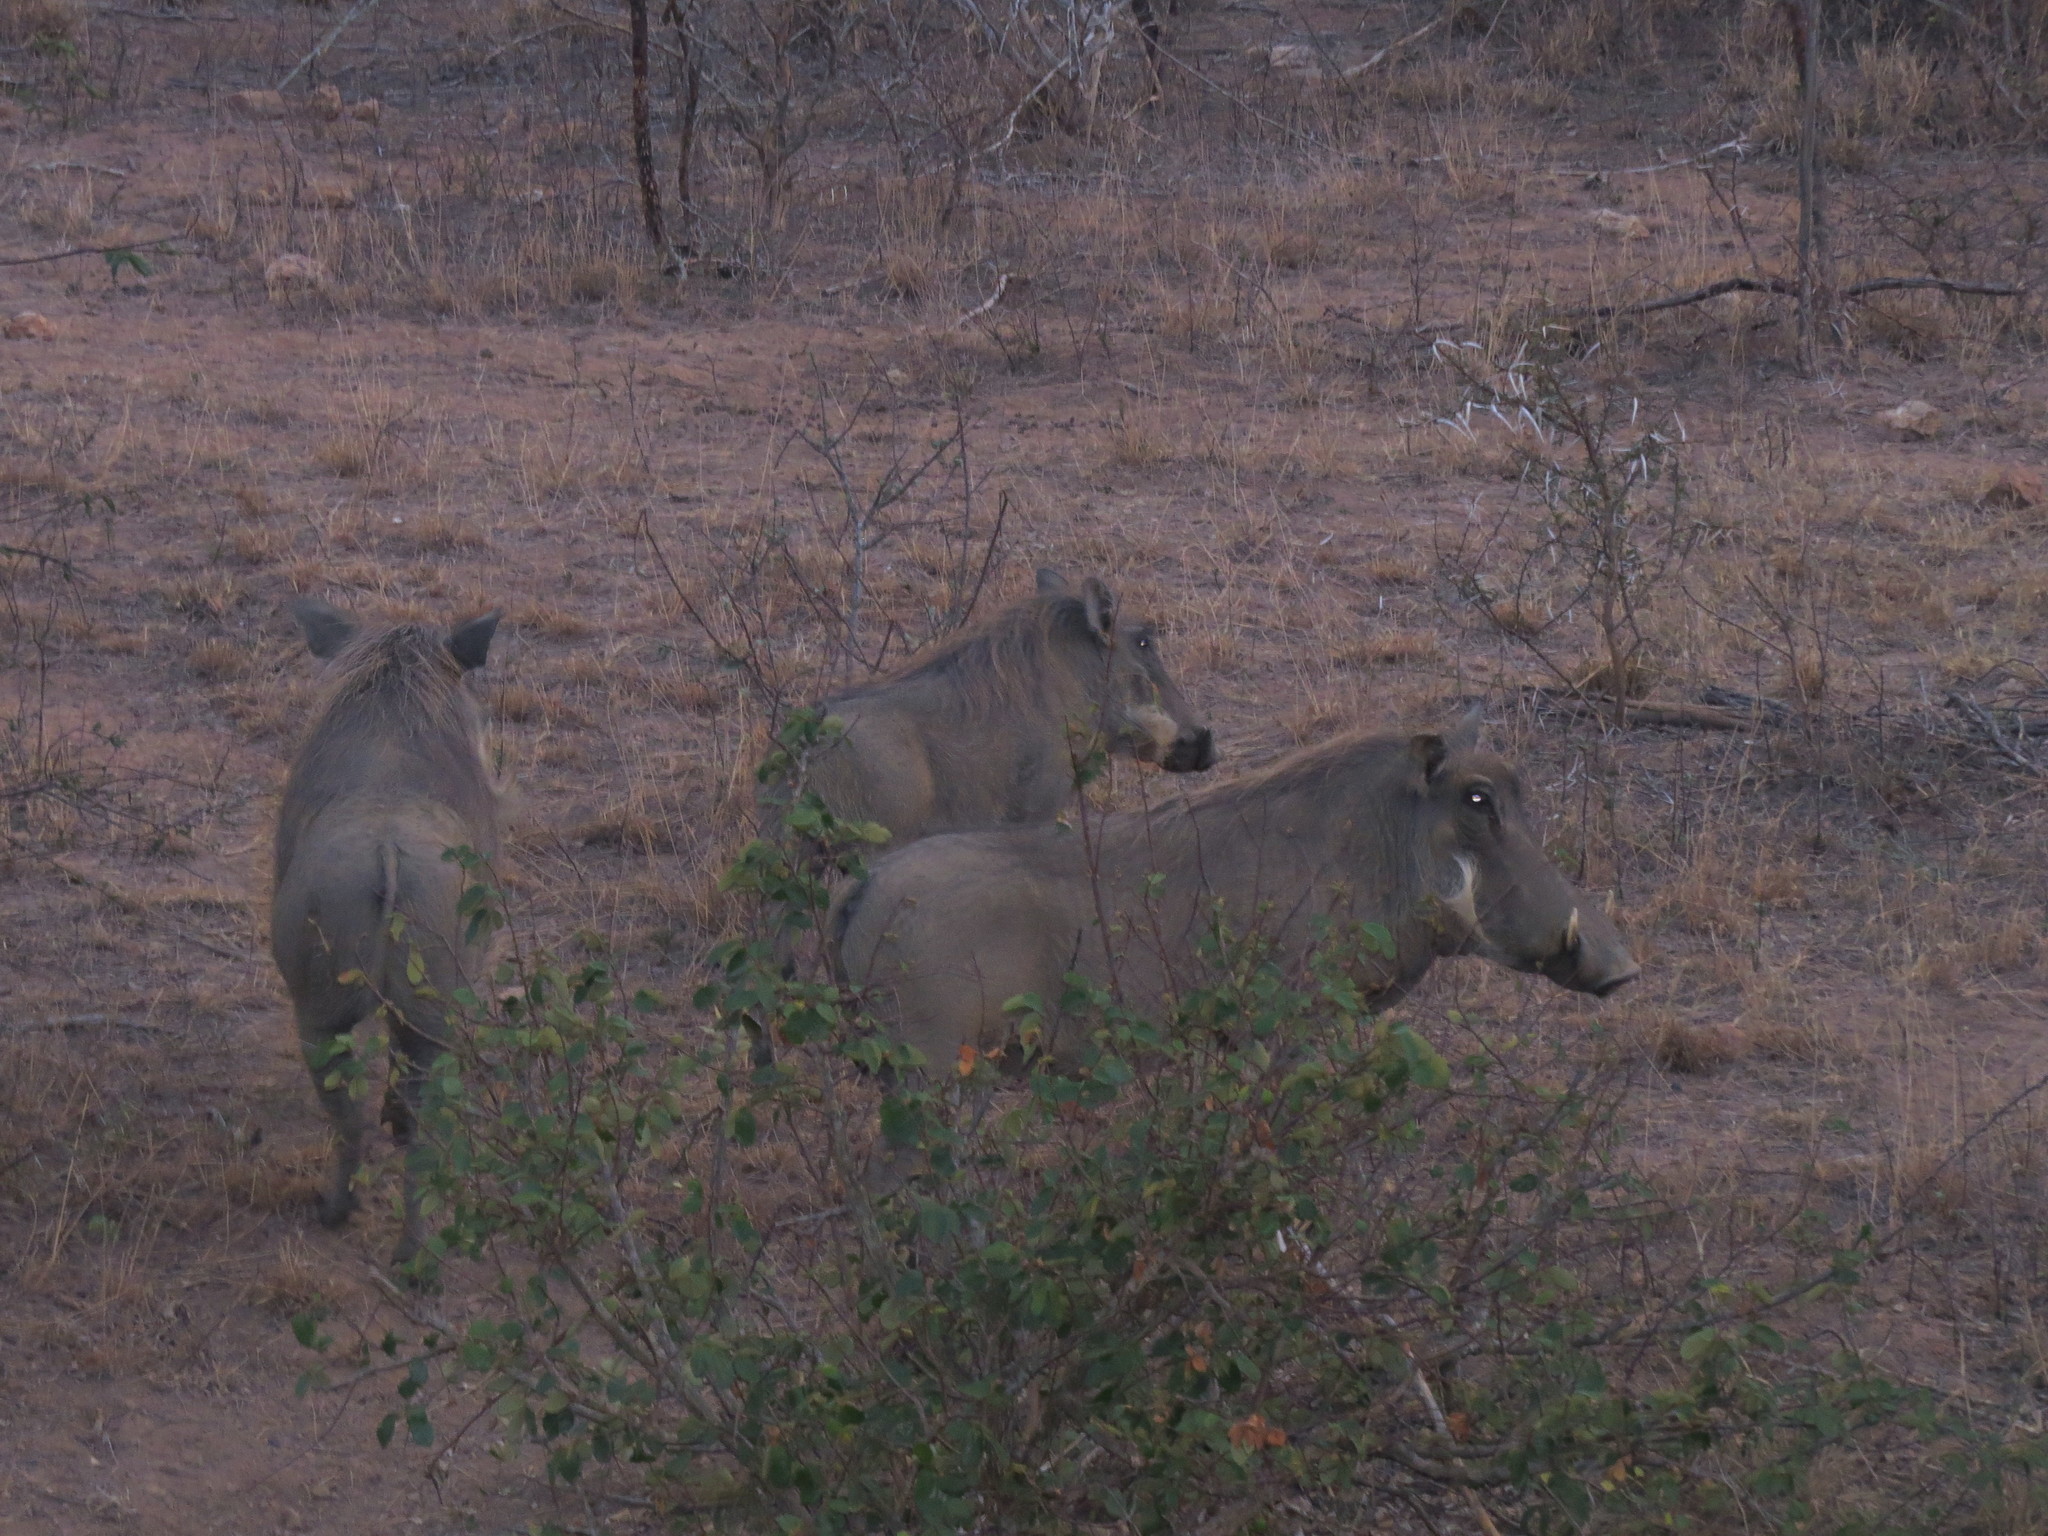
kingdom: Animalia
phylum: Chordata
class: Mammalia
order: Artiodactyla
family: Suidae
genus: Phacochoerus
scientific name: Phacochoerus africanus
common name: Common warthog
